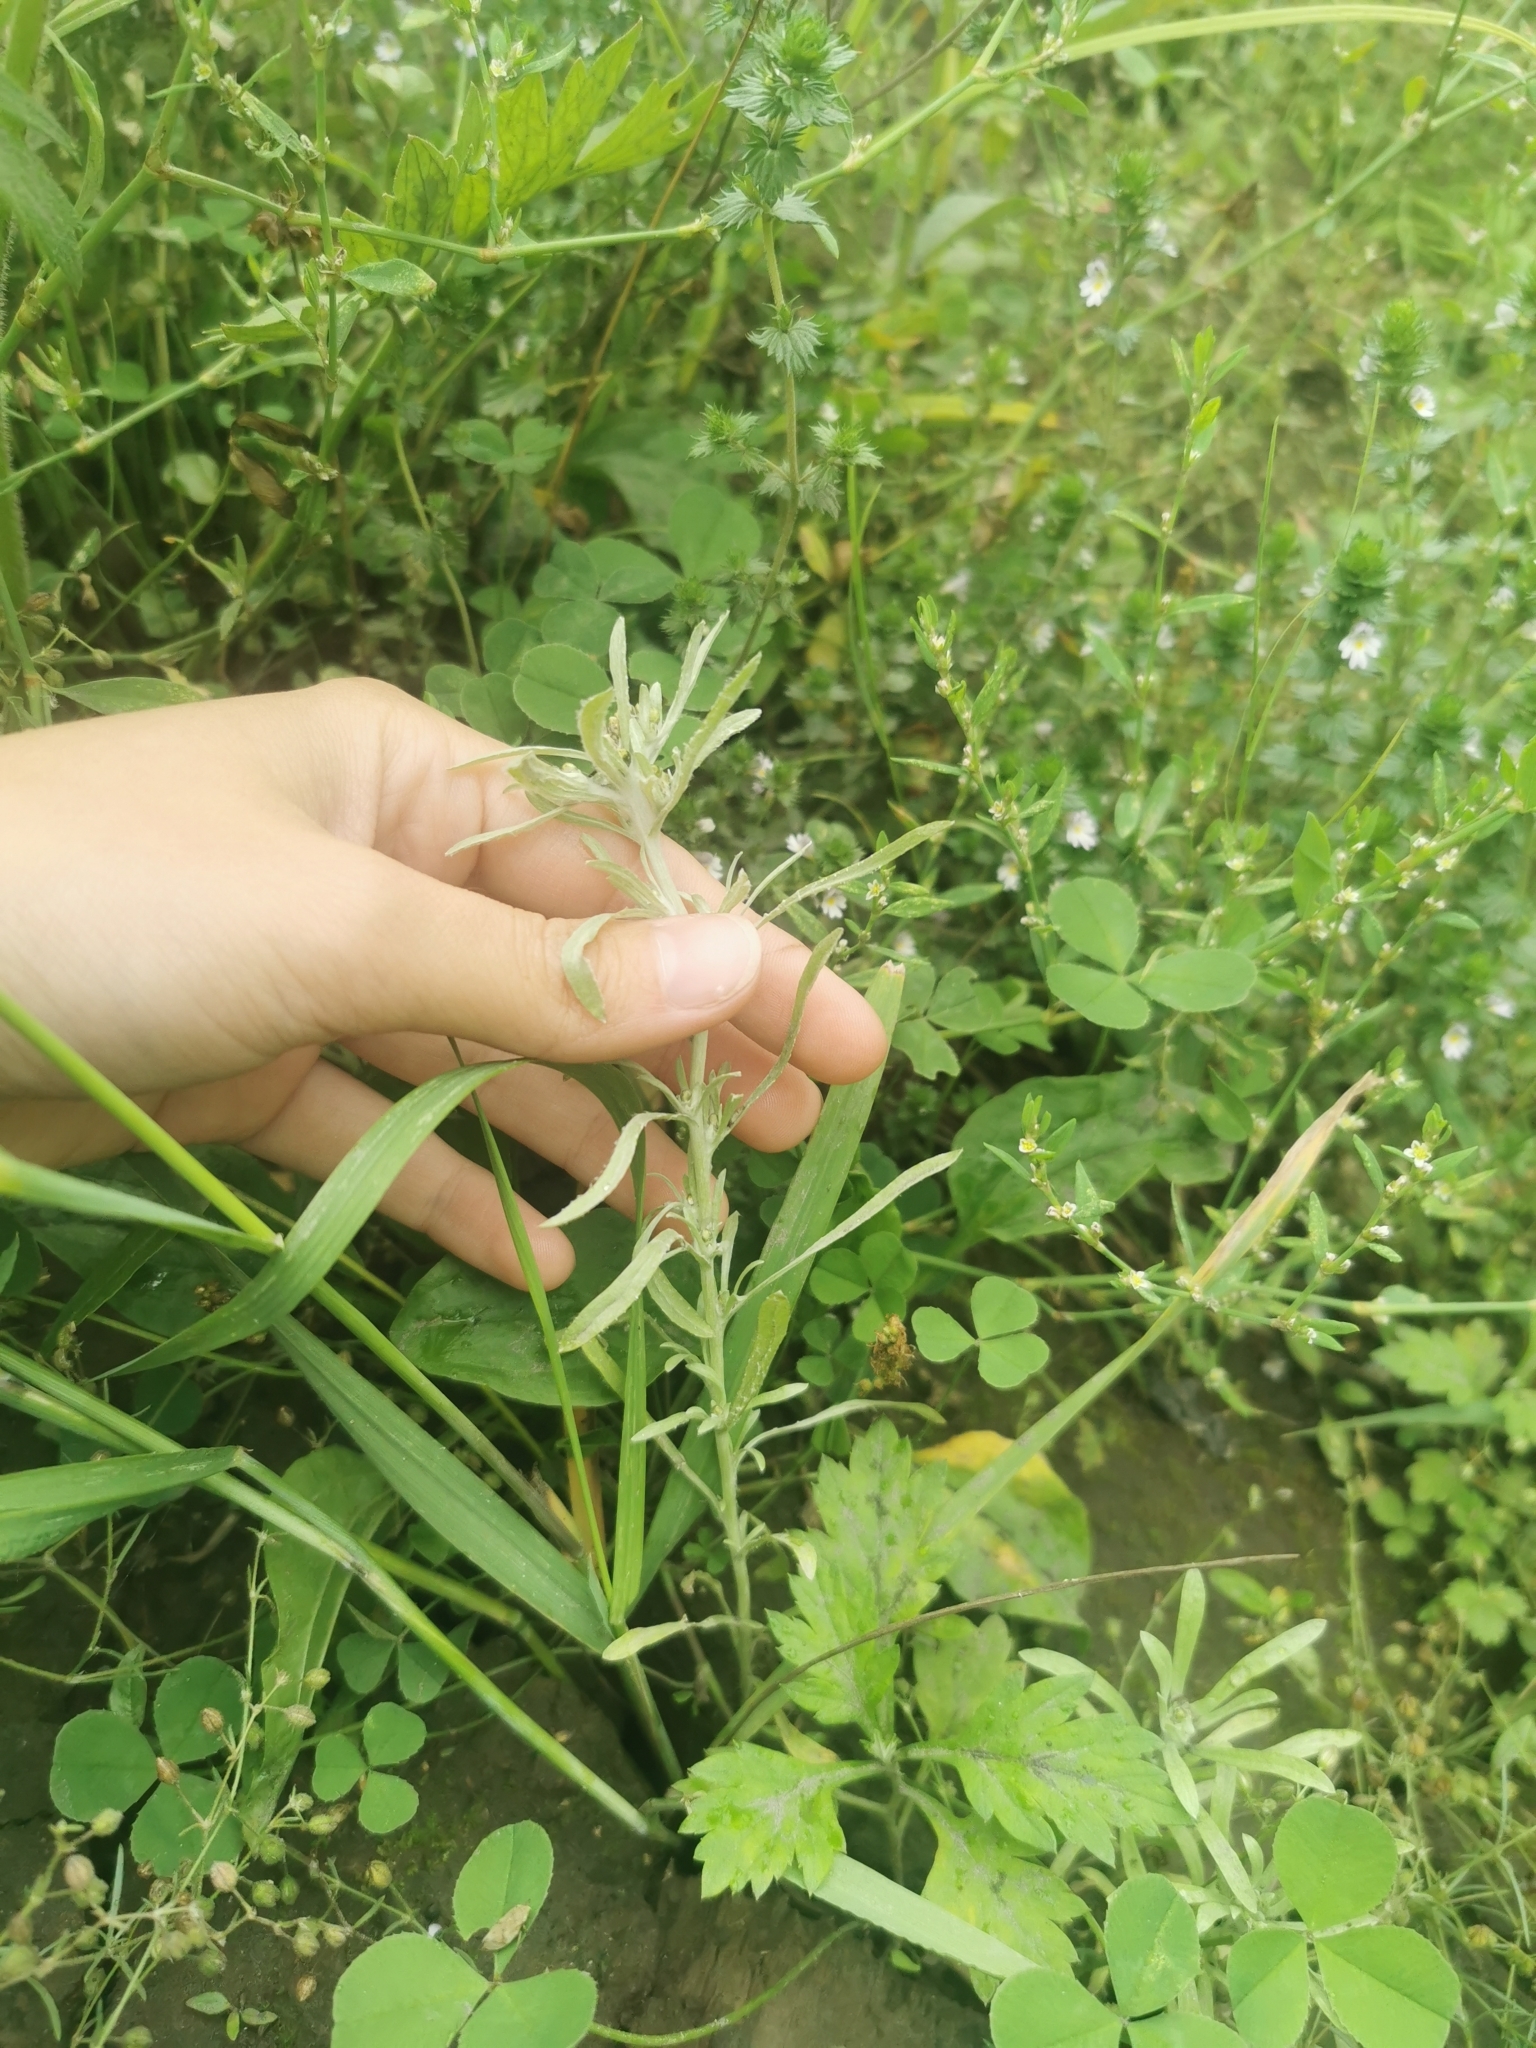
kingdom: Plantae
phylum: Tracheophyta
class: Magnoliopsida
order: Asterales
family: Asteraceae
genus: Gnaphalium
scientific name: Gnaphalium uliginosum
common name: Marsh cudweed
